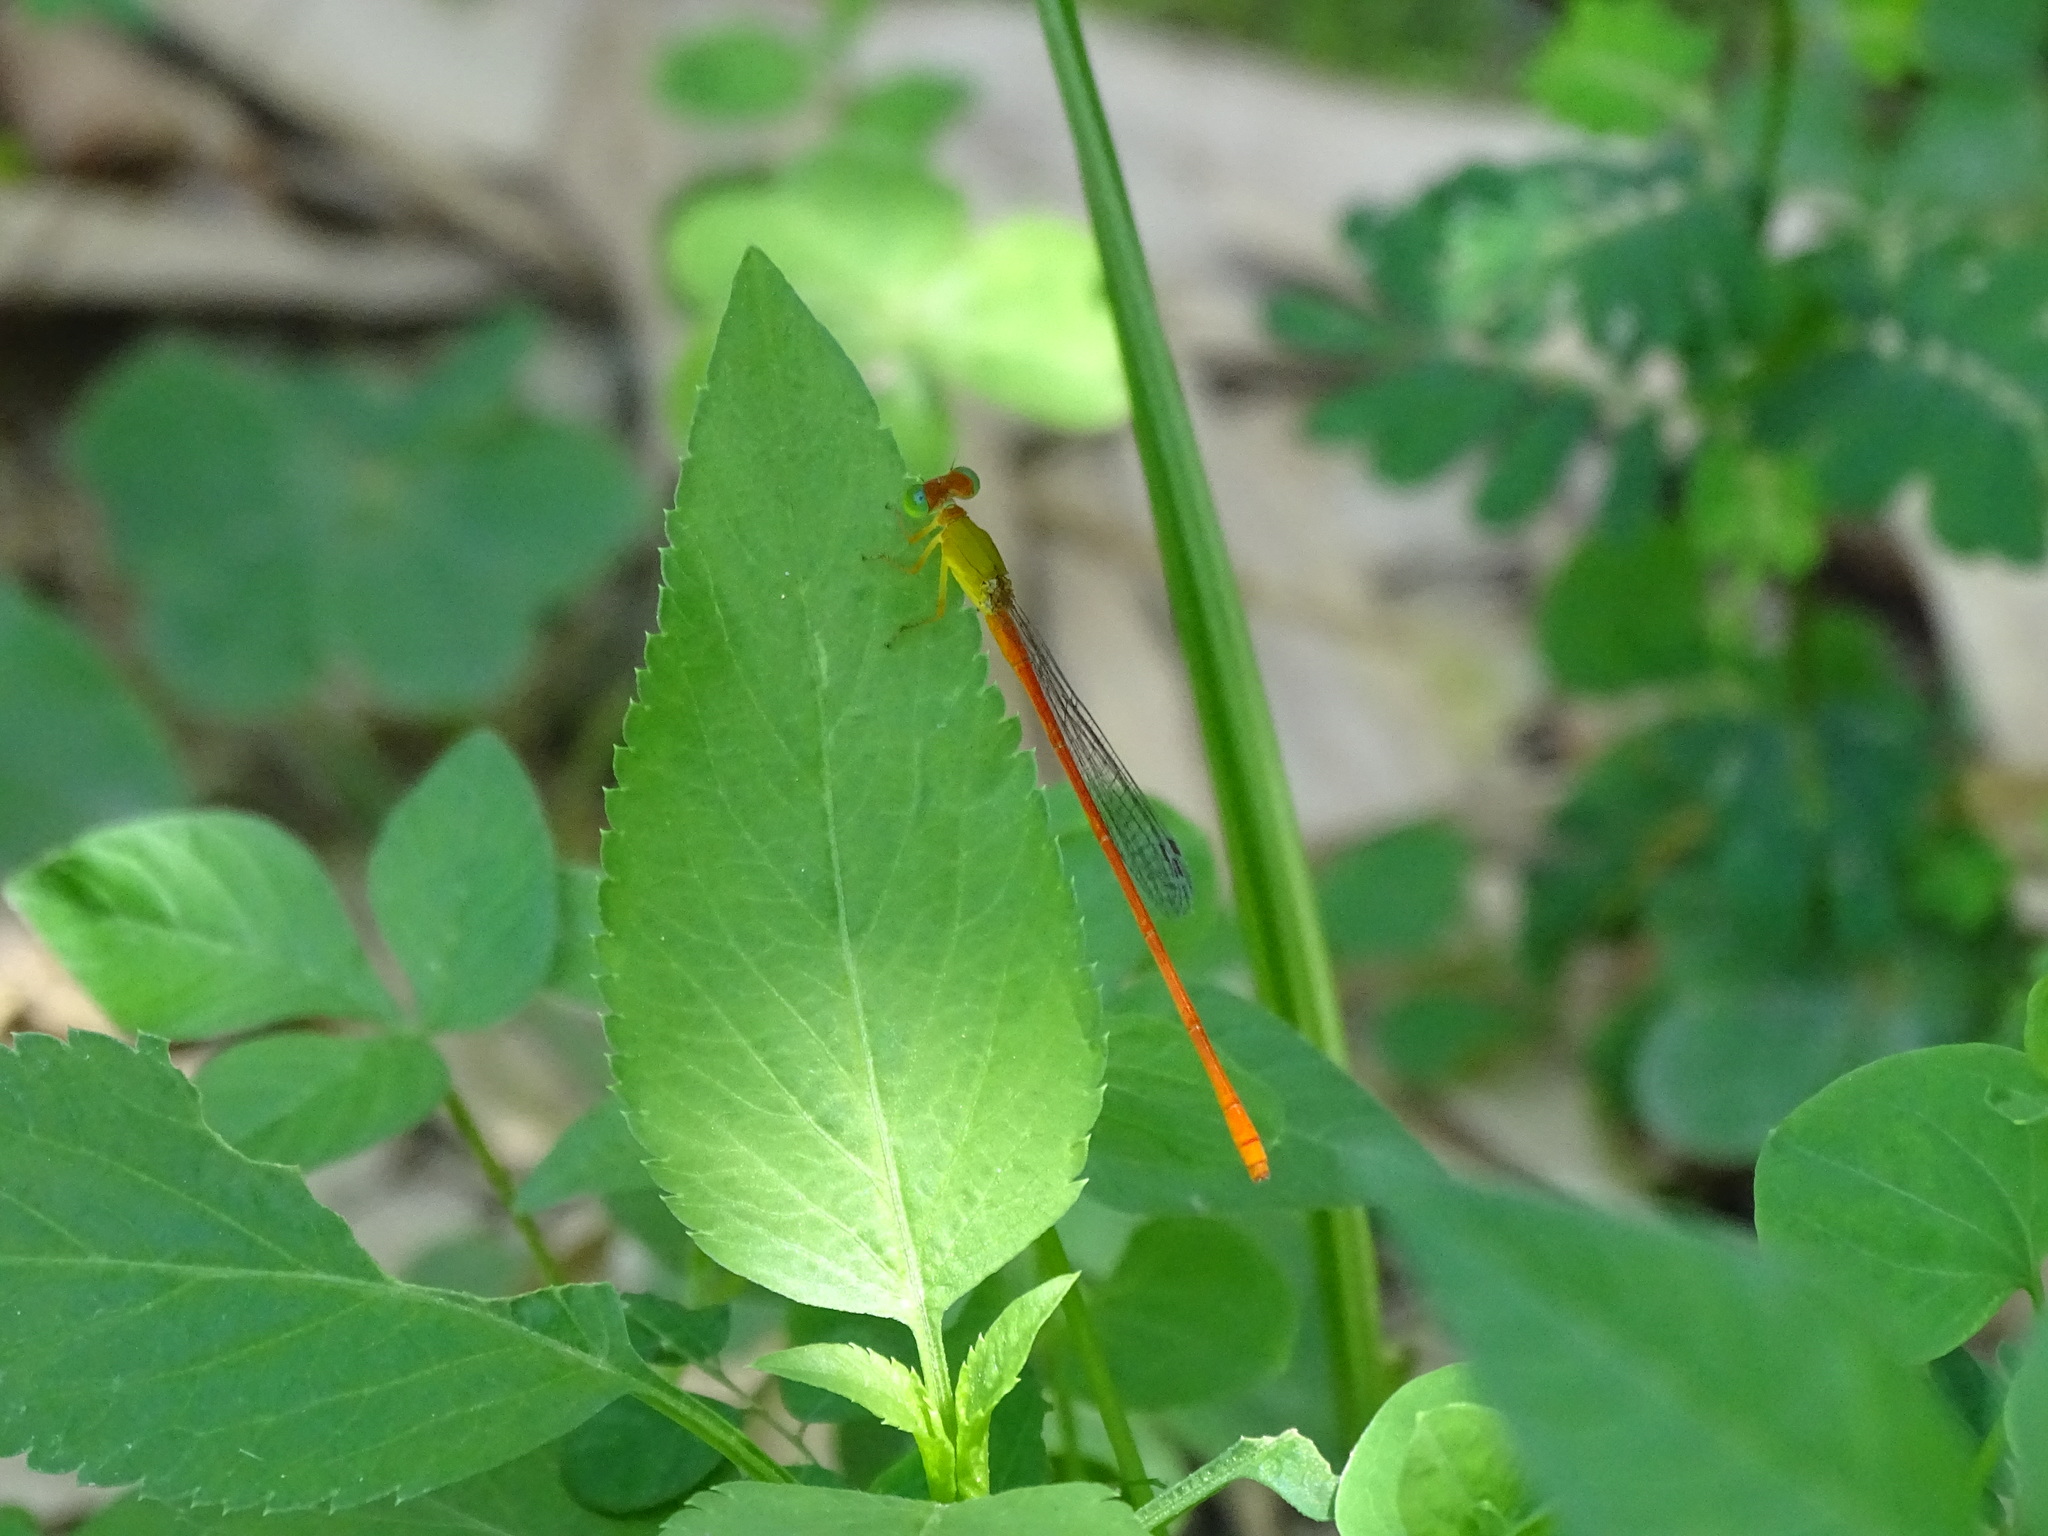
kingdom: Animalia
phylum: Arthropoda
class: Insecta
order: Odonata
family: Coenagrionidae
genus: Ceriagrion
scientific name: Ceriagrion auranticum
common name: Orange-tailed sprite
